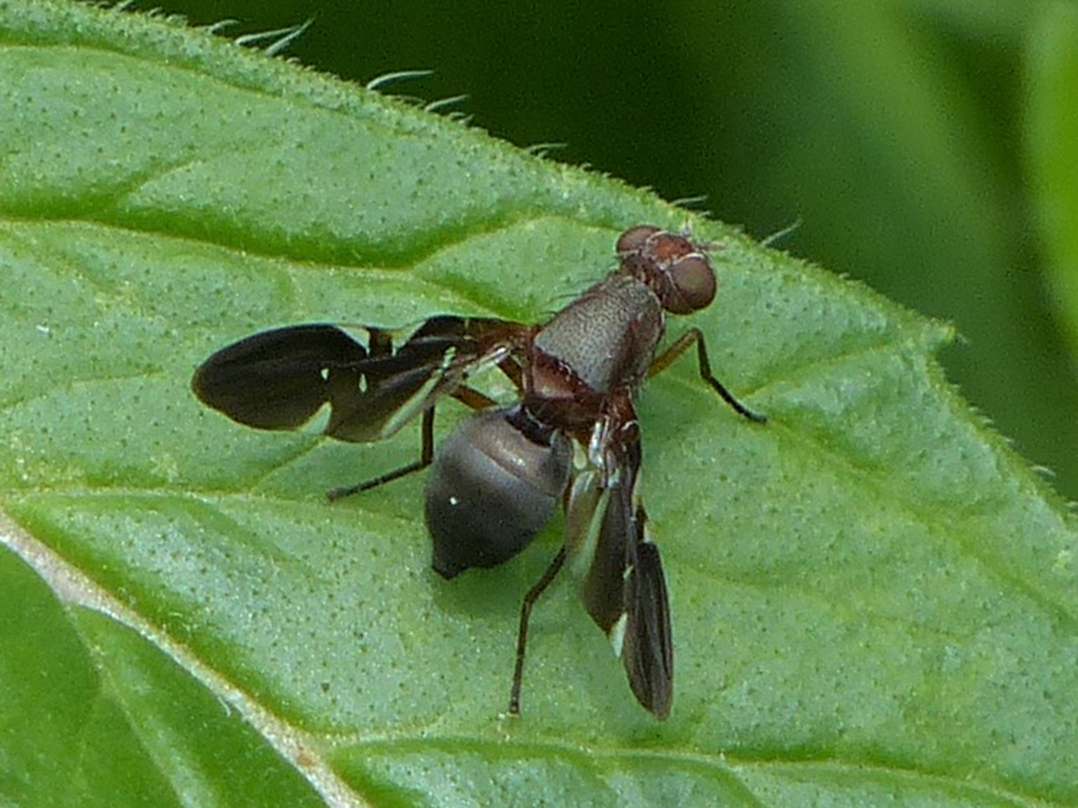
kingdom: Animalia
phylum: Arthropoda
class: Insecta
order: Diptera
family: Ulidiidae
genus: Delphinia
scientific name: Delphinia picta
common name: Common picture-winged fly
